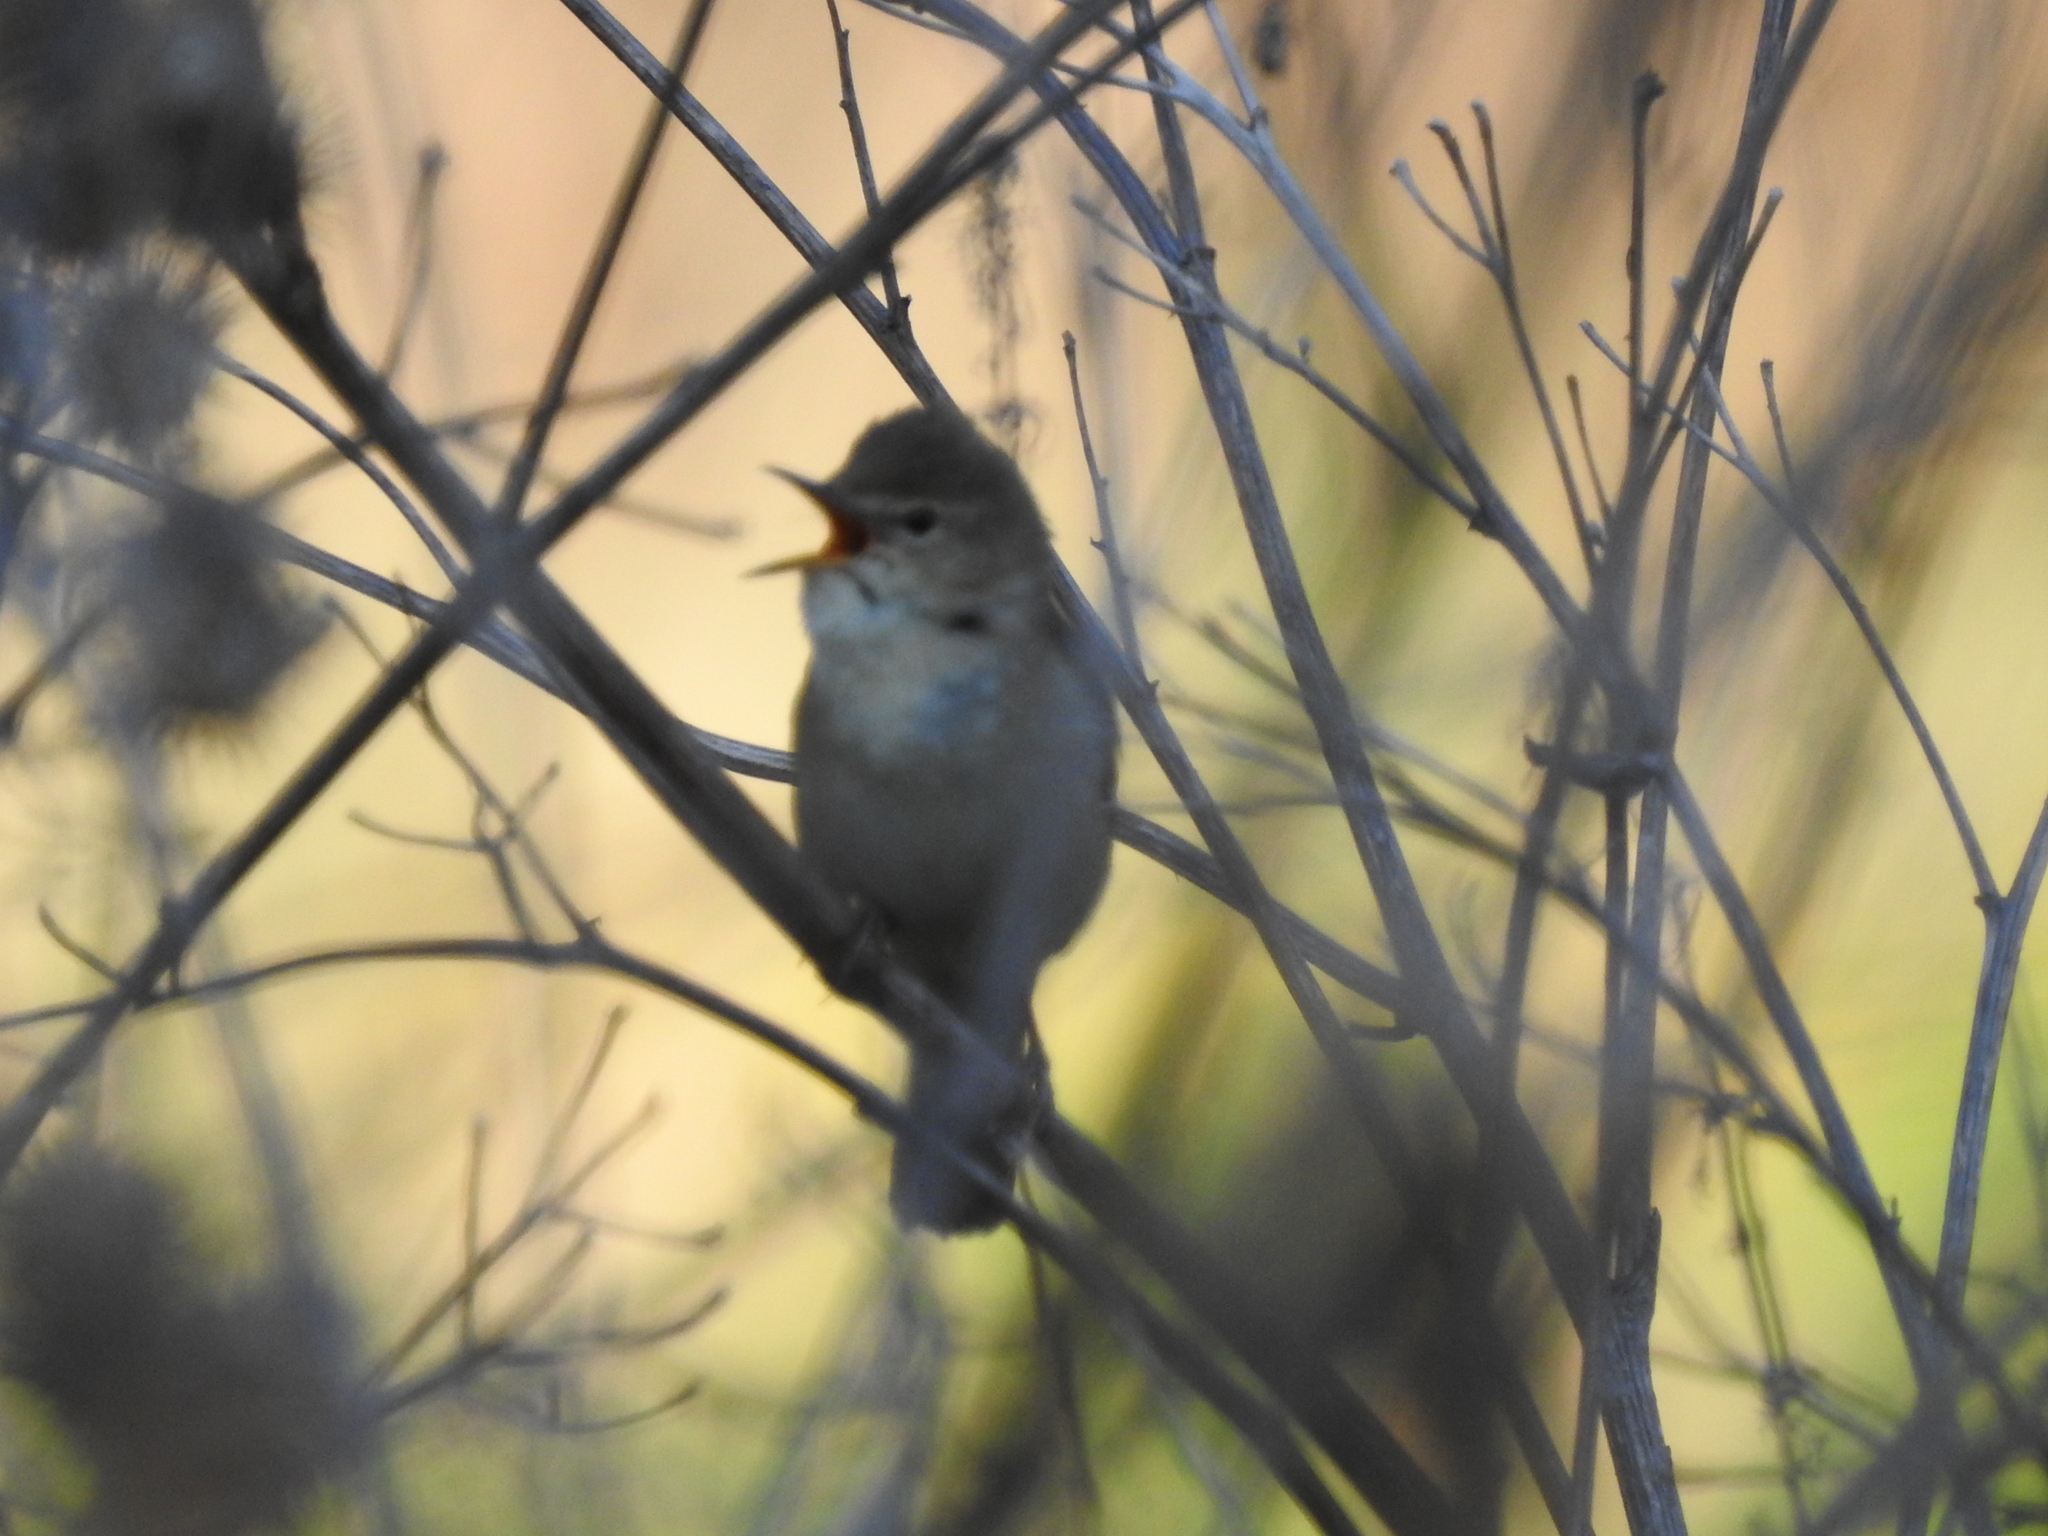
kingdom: Animalia
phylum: Chordata
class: Aves
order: Passeriformes
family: Acrocephalidae
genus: Acrocephalus
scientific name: Acrocephalus dumetorum
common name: Blyth's reed warbler
